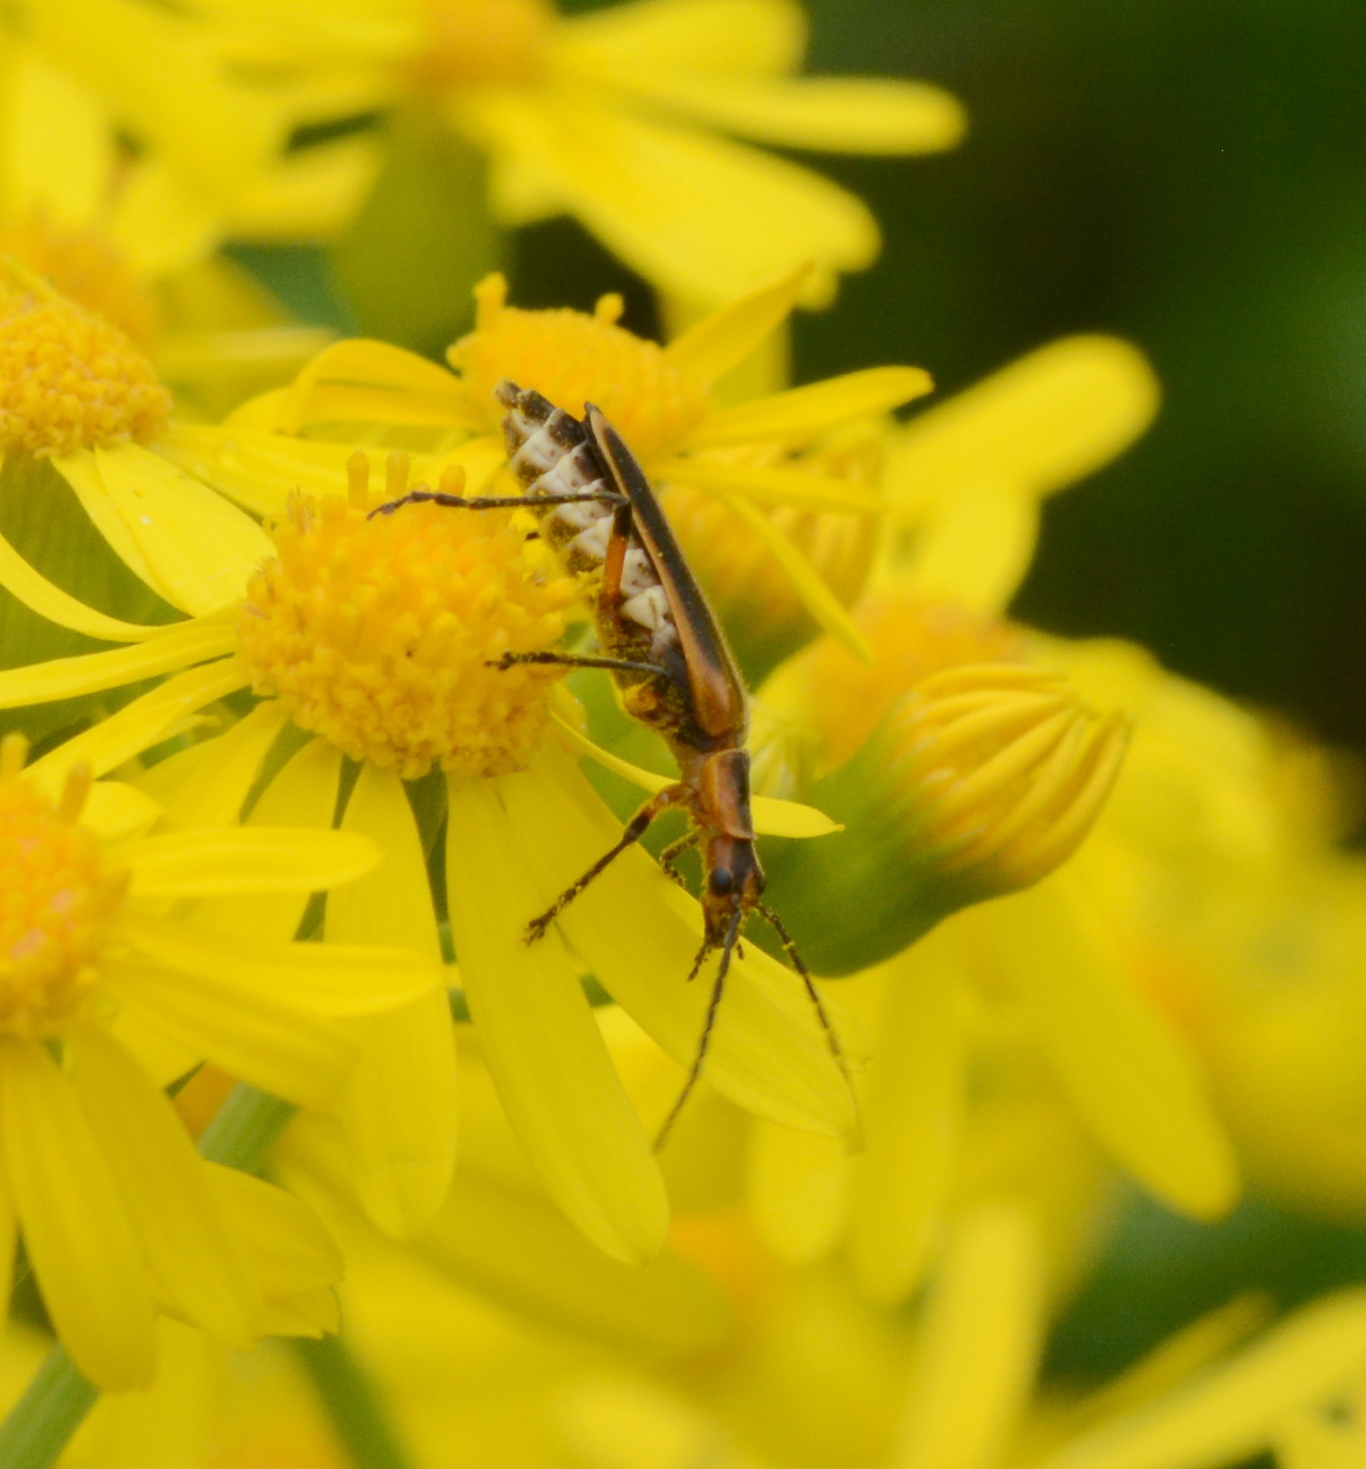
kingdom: Animalia
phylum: Arthropoda
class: Insecta
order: Coleoptera
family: Cantharidae
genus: Chauliognathus
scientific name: Chauliognathus marginatus
